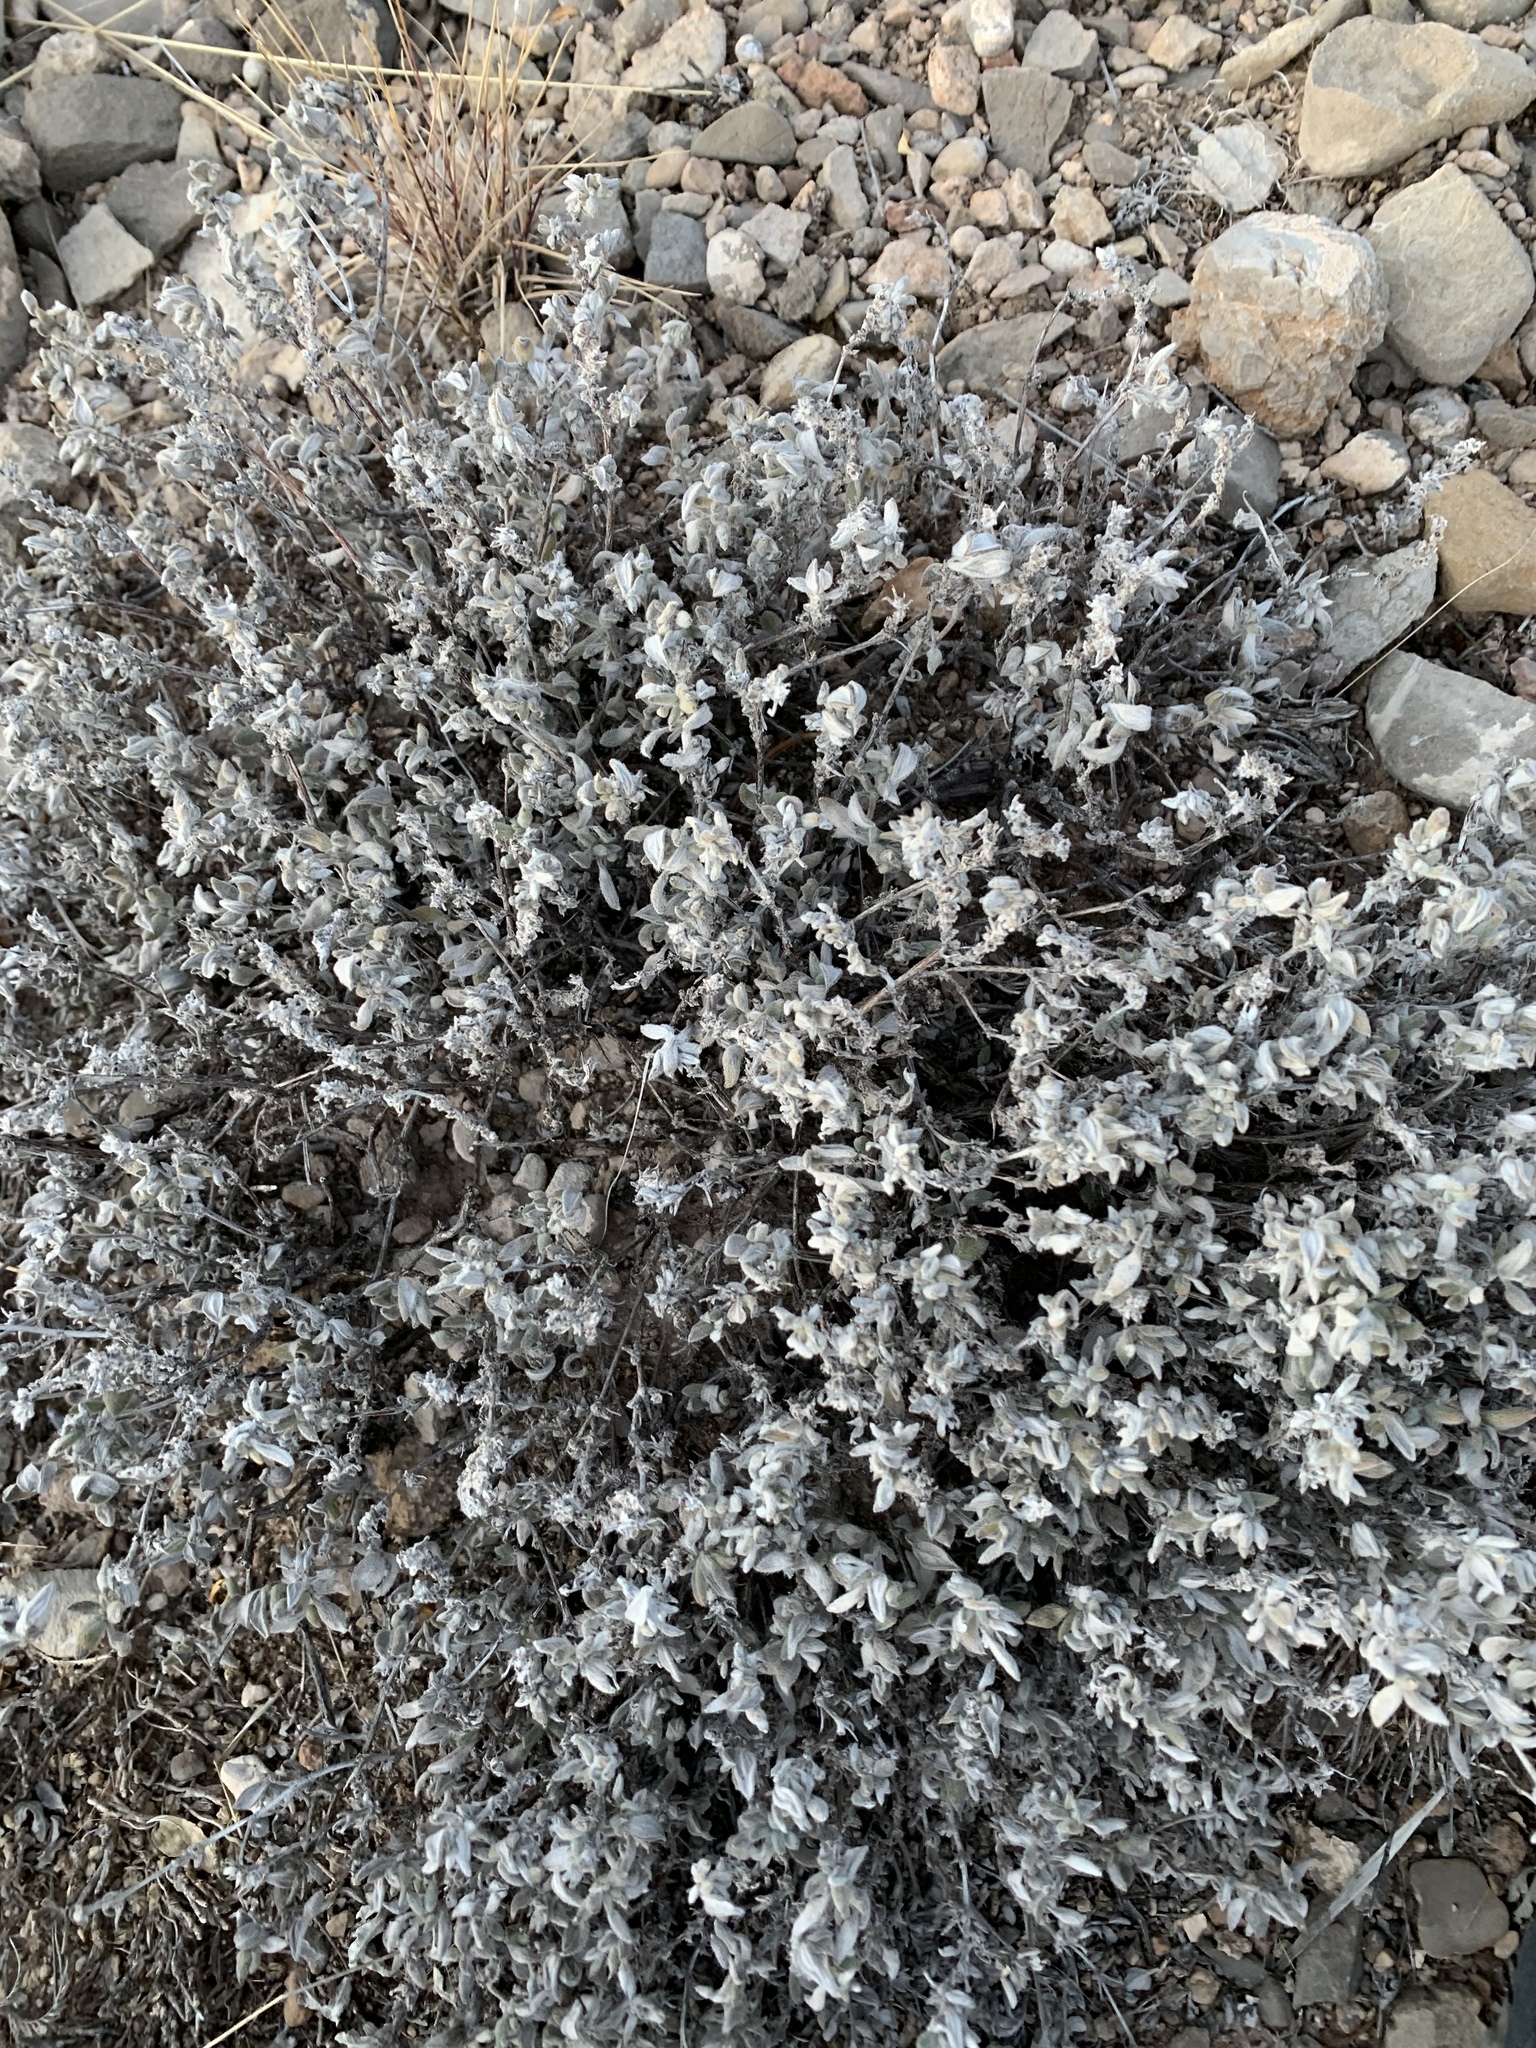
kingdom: Plantae
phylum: Tracheophyta
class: Magnoliopsida
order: Boraginales
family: Ehretiaceae
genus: Tiquilia
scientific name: Tiquilia canescens
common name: Hairy tiquilia
